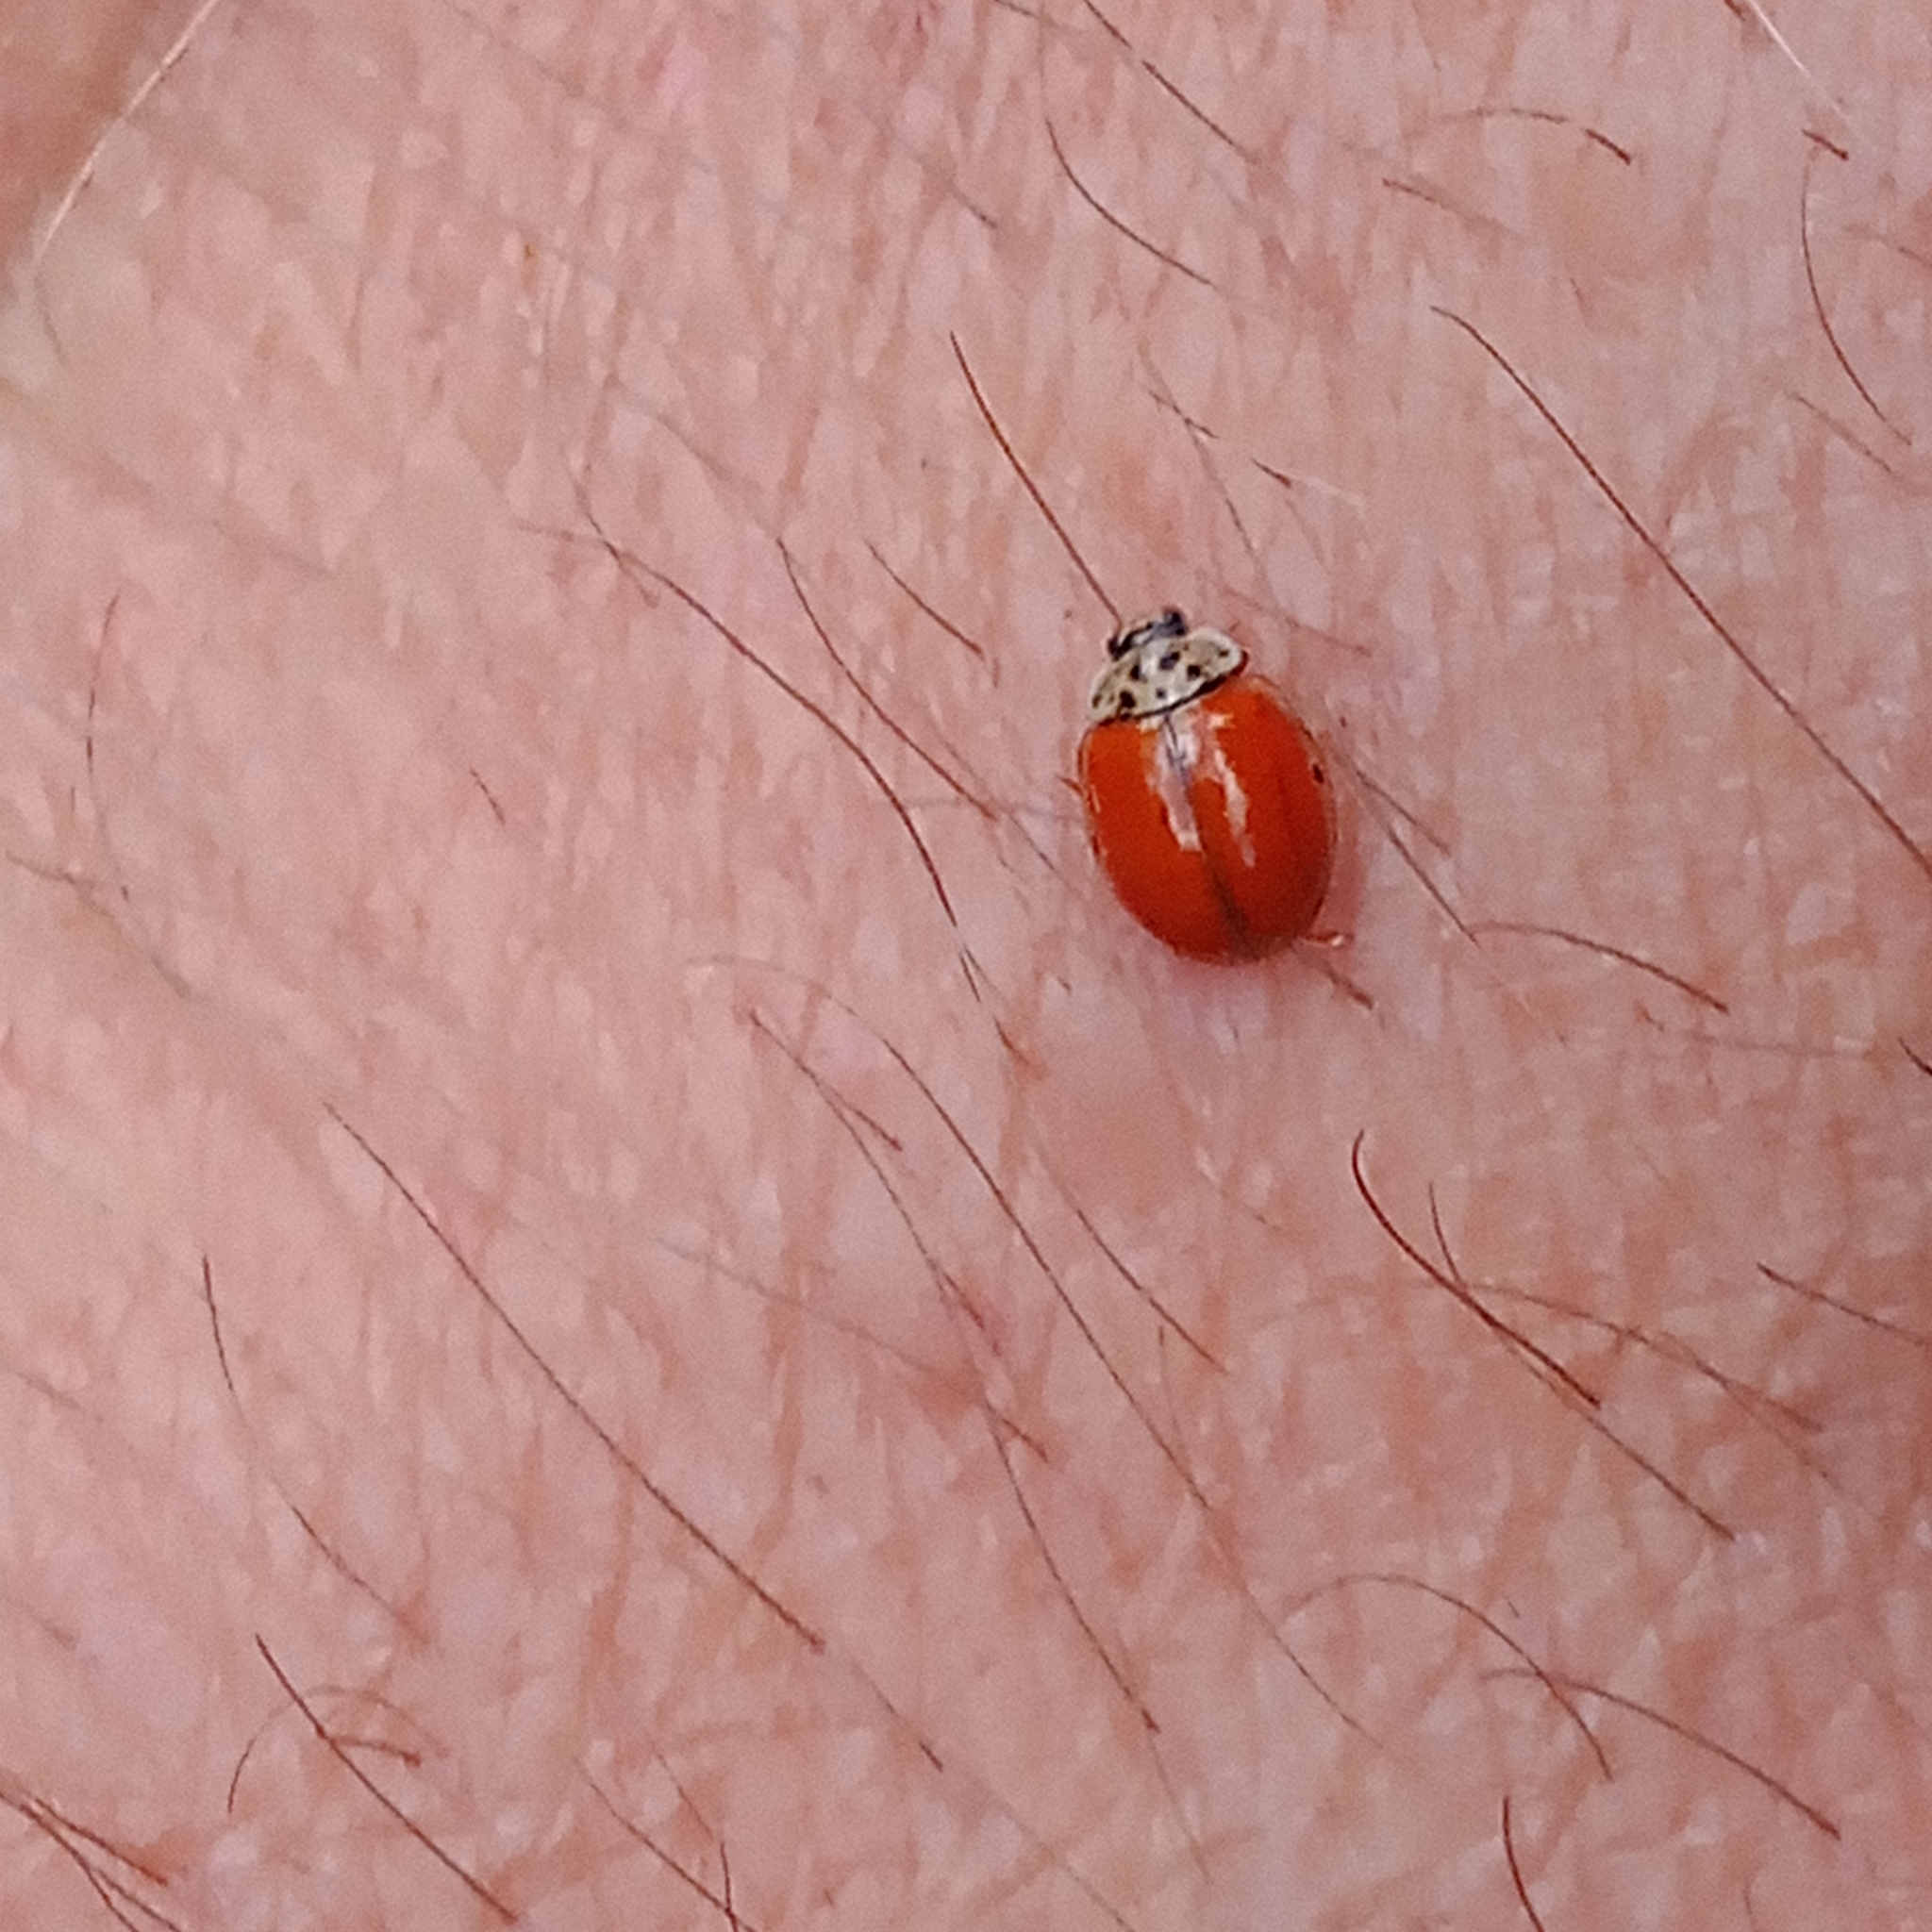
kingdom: Animalia
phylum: Arthropoda
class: Insecta
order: Coleoptera
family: Coccinellidae
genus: Adalia
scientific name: Adalia decempunctata
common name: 10-spot ladybird
